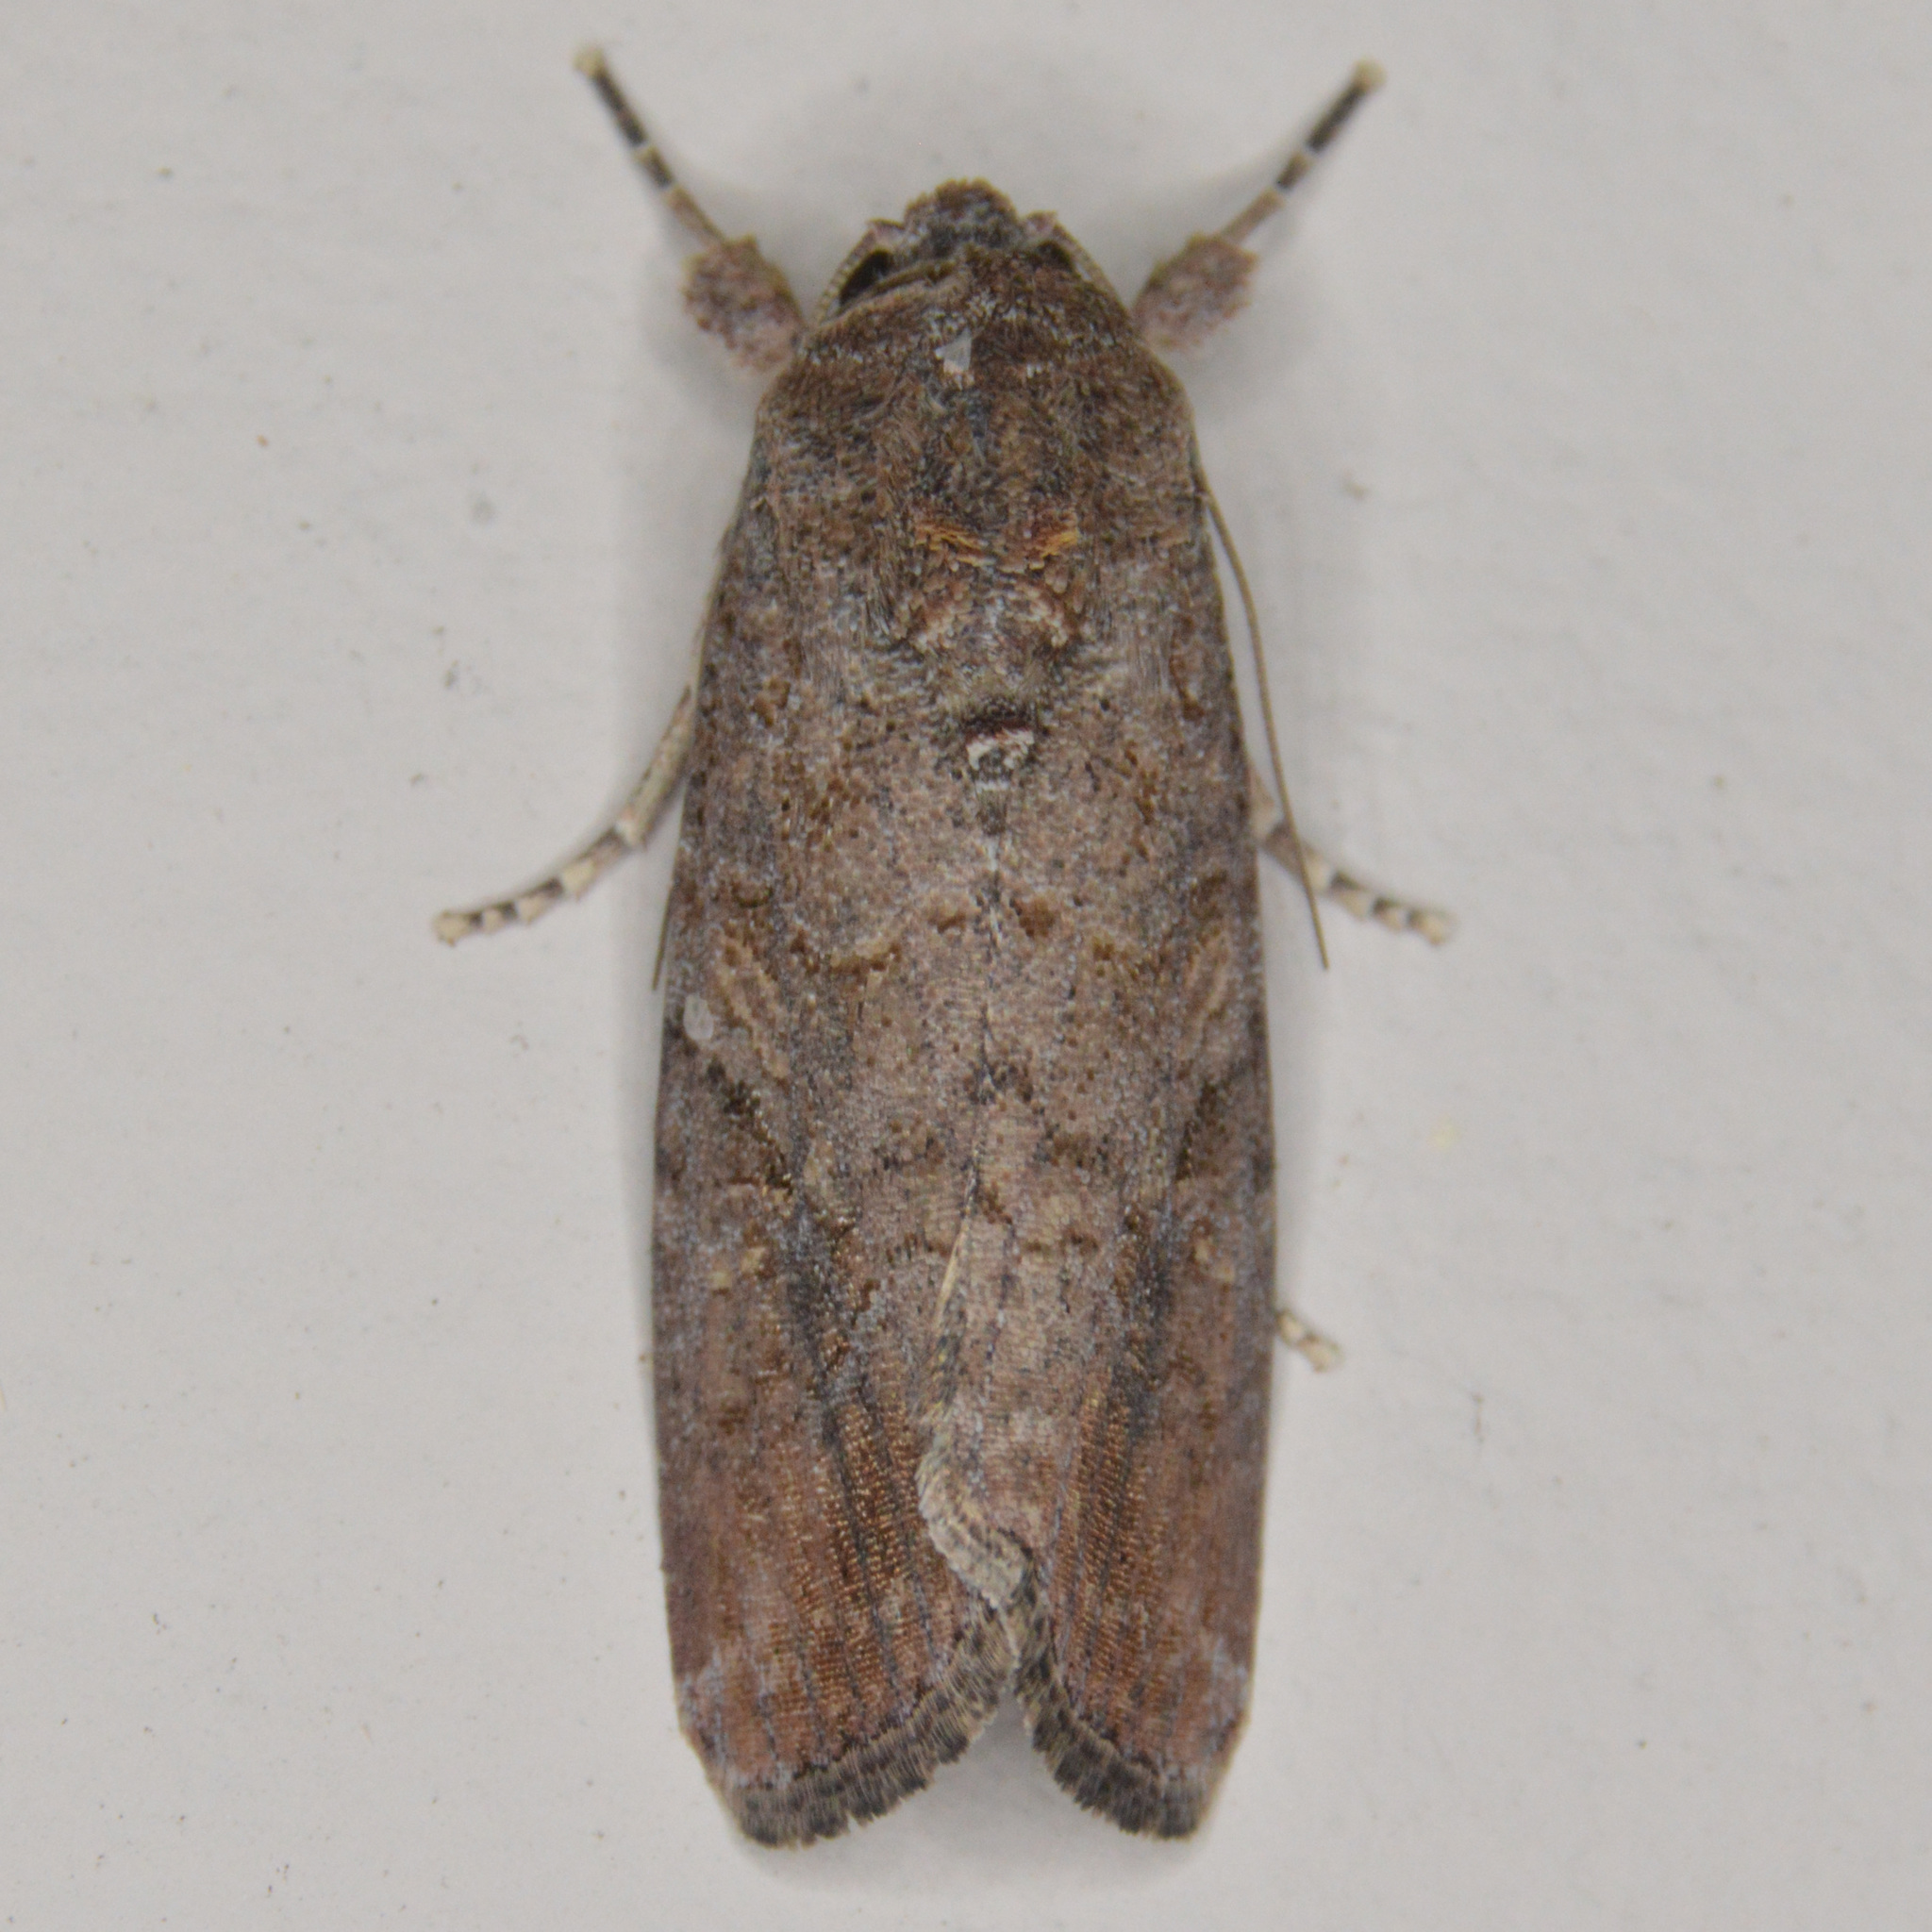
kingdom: Animalia
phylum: Arthropoda
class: Insecta
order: Lepidoptera
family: Noctuidae
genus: Spodoptera
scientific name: Spodoptera frugiperda
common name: Fall armyworm
